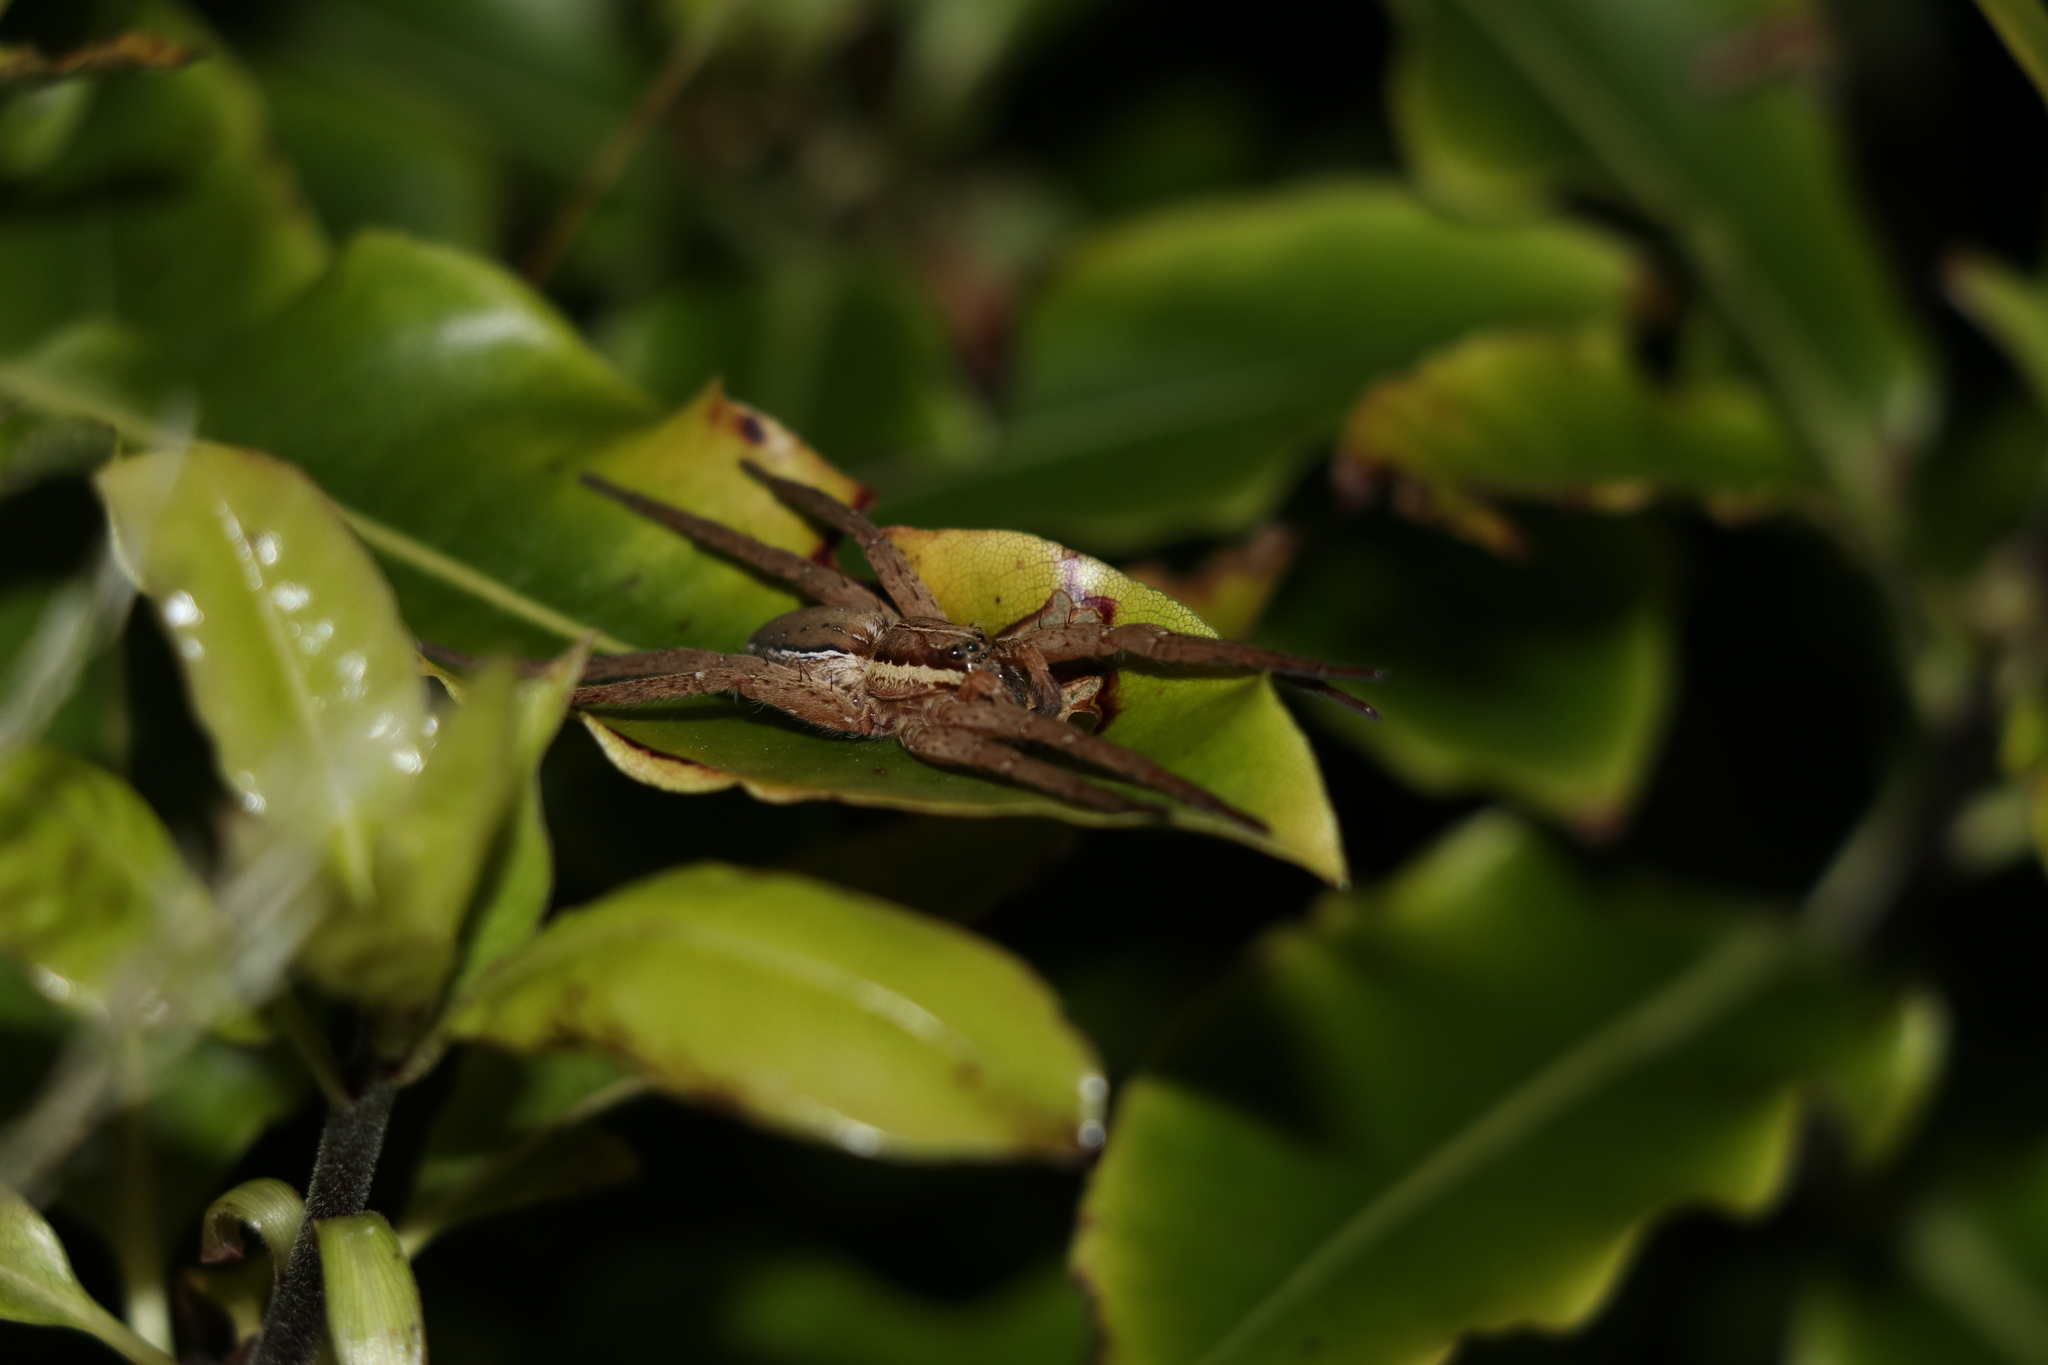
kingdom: Animalia
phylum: Arthropoda
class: Arachnida
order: Araneae
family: Pisauridae
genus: Dolomedes
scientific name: Dolomedes minor
